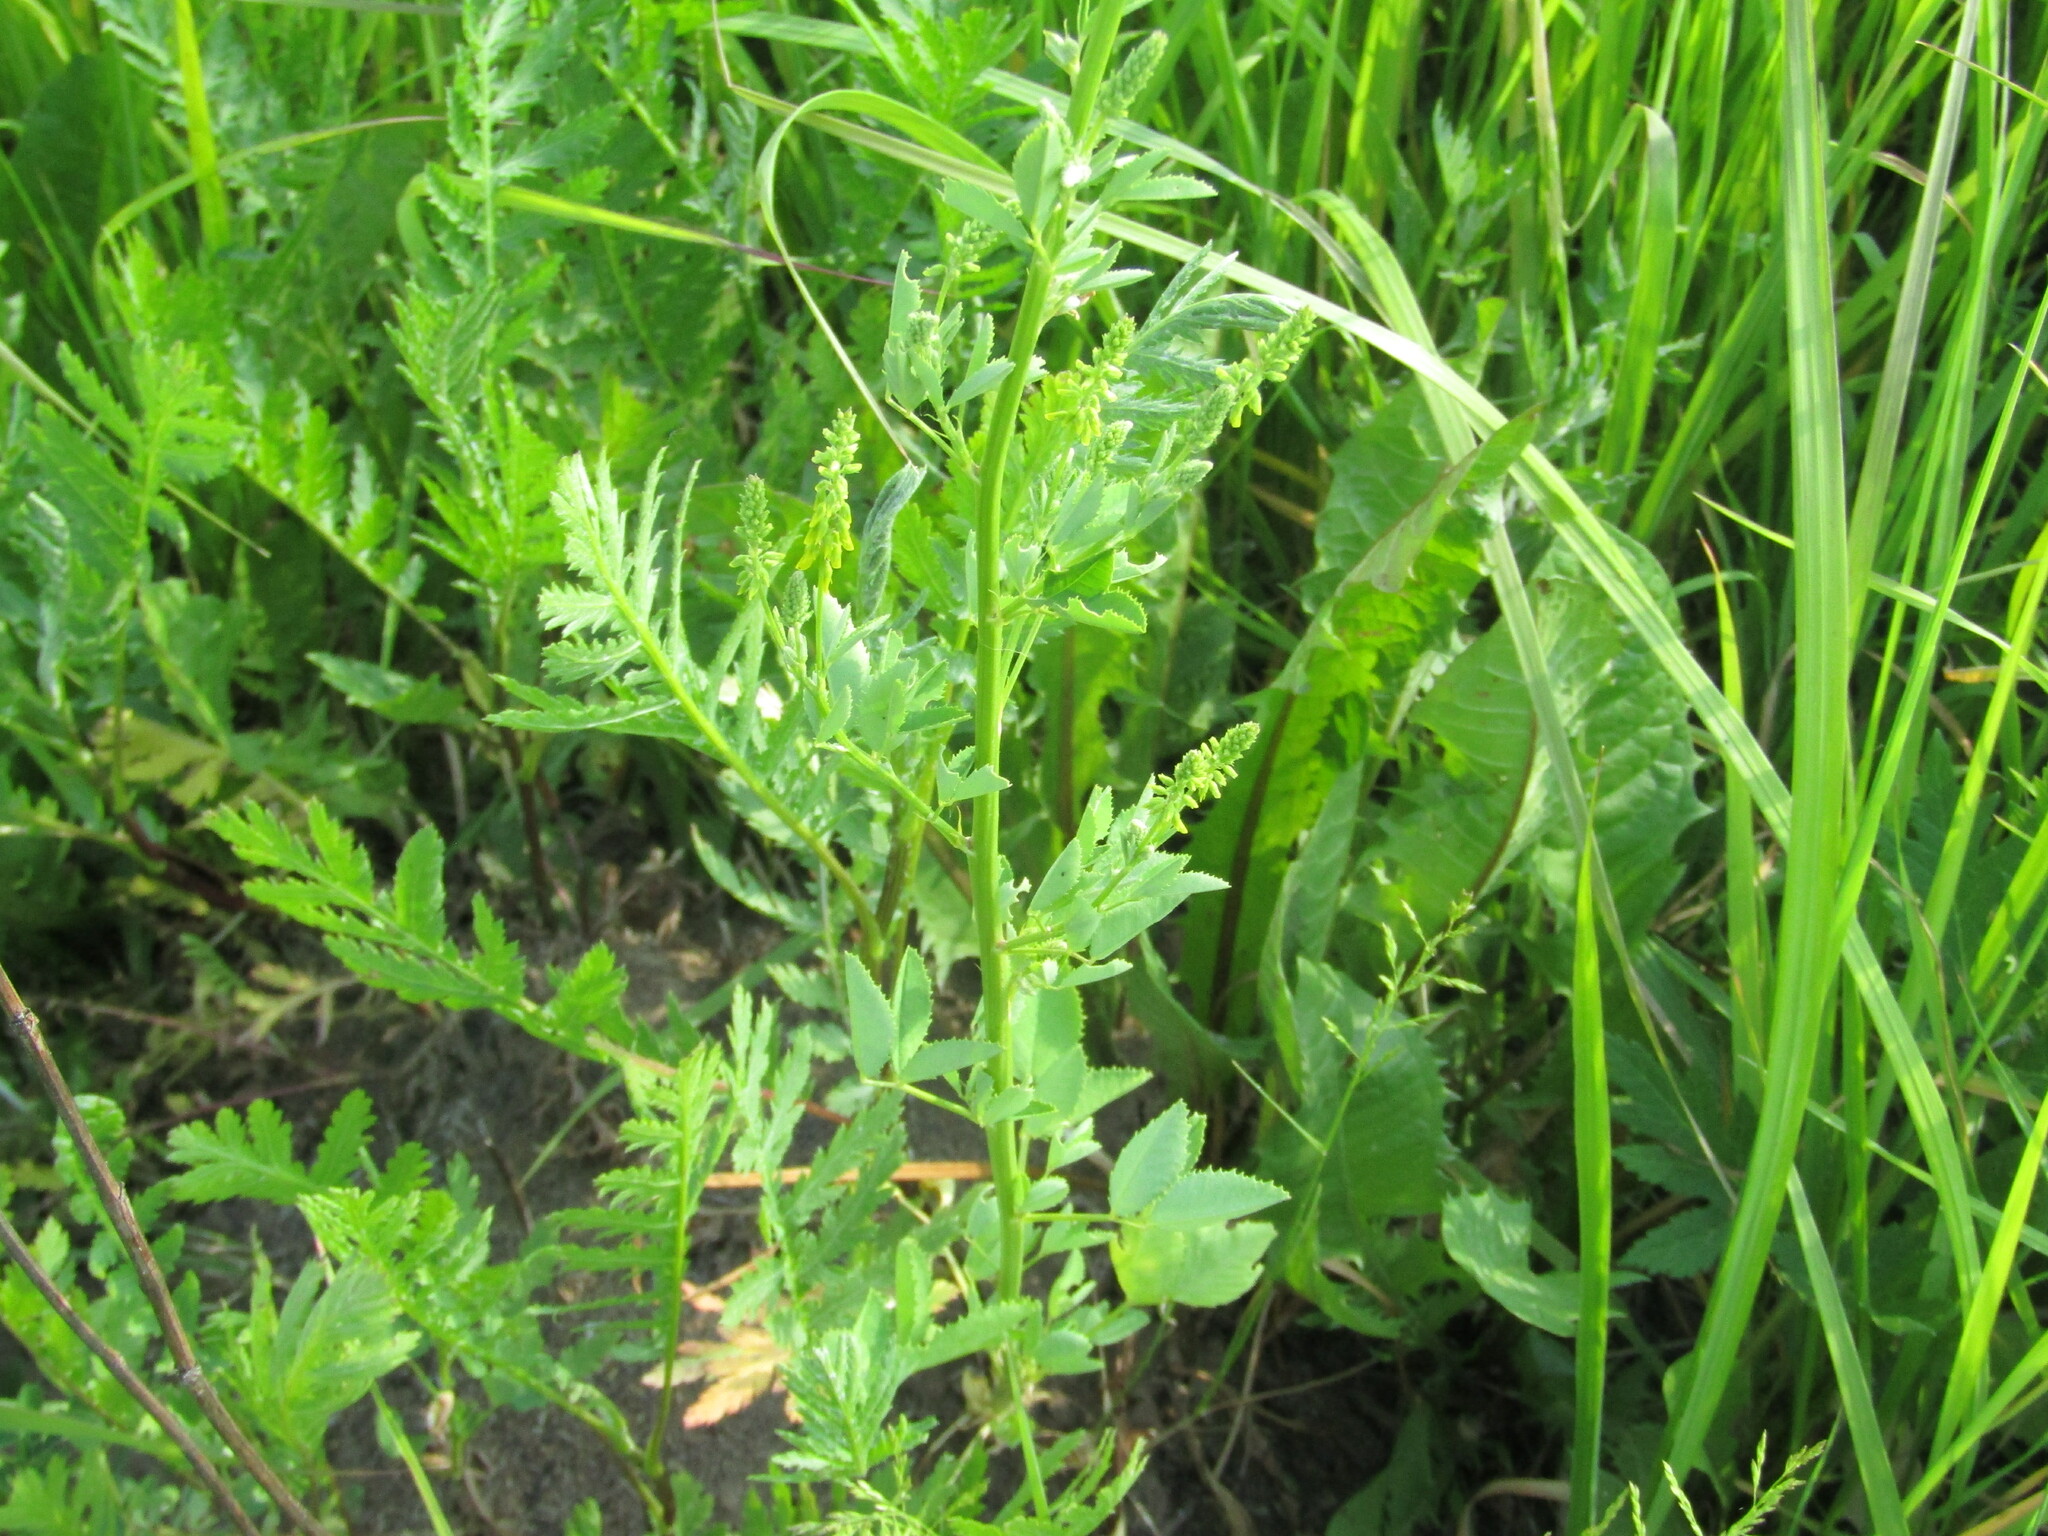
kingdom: Plantae
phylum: Tracheophyta
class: Magnoliopsida
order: Fabales
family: Fabaceae
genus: Melilotus
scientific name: Melilotus officinalis
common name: Sweetclover
